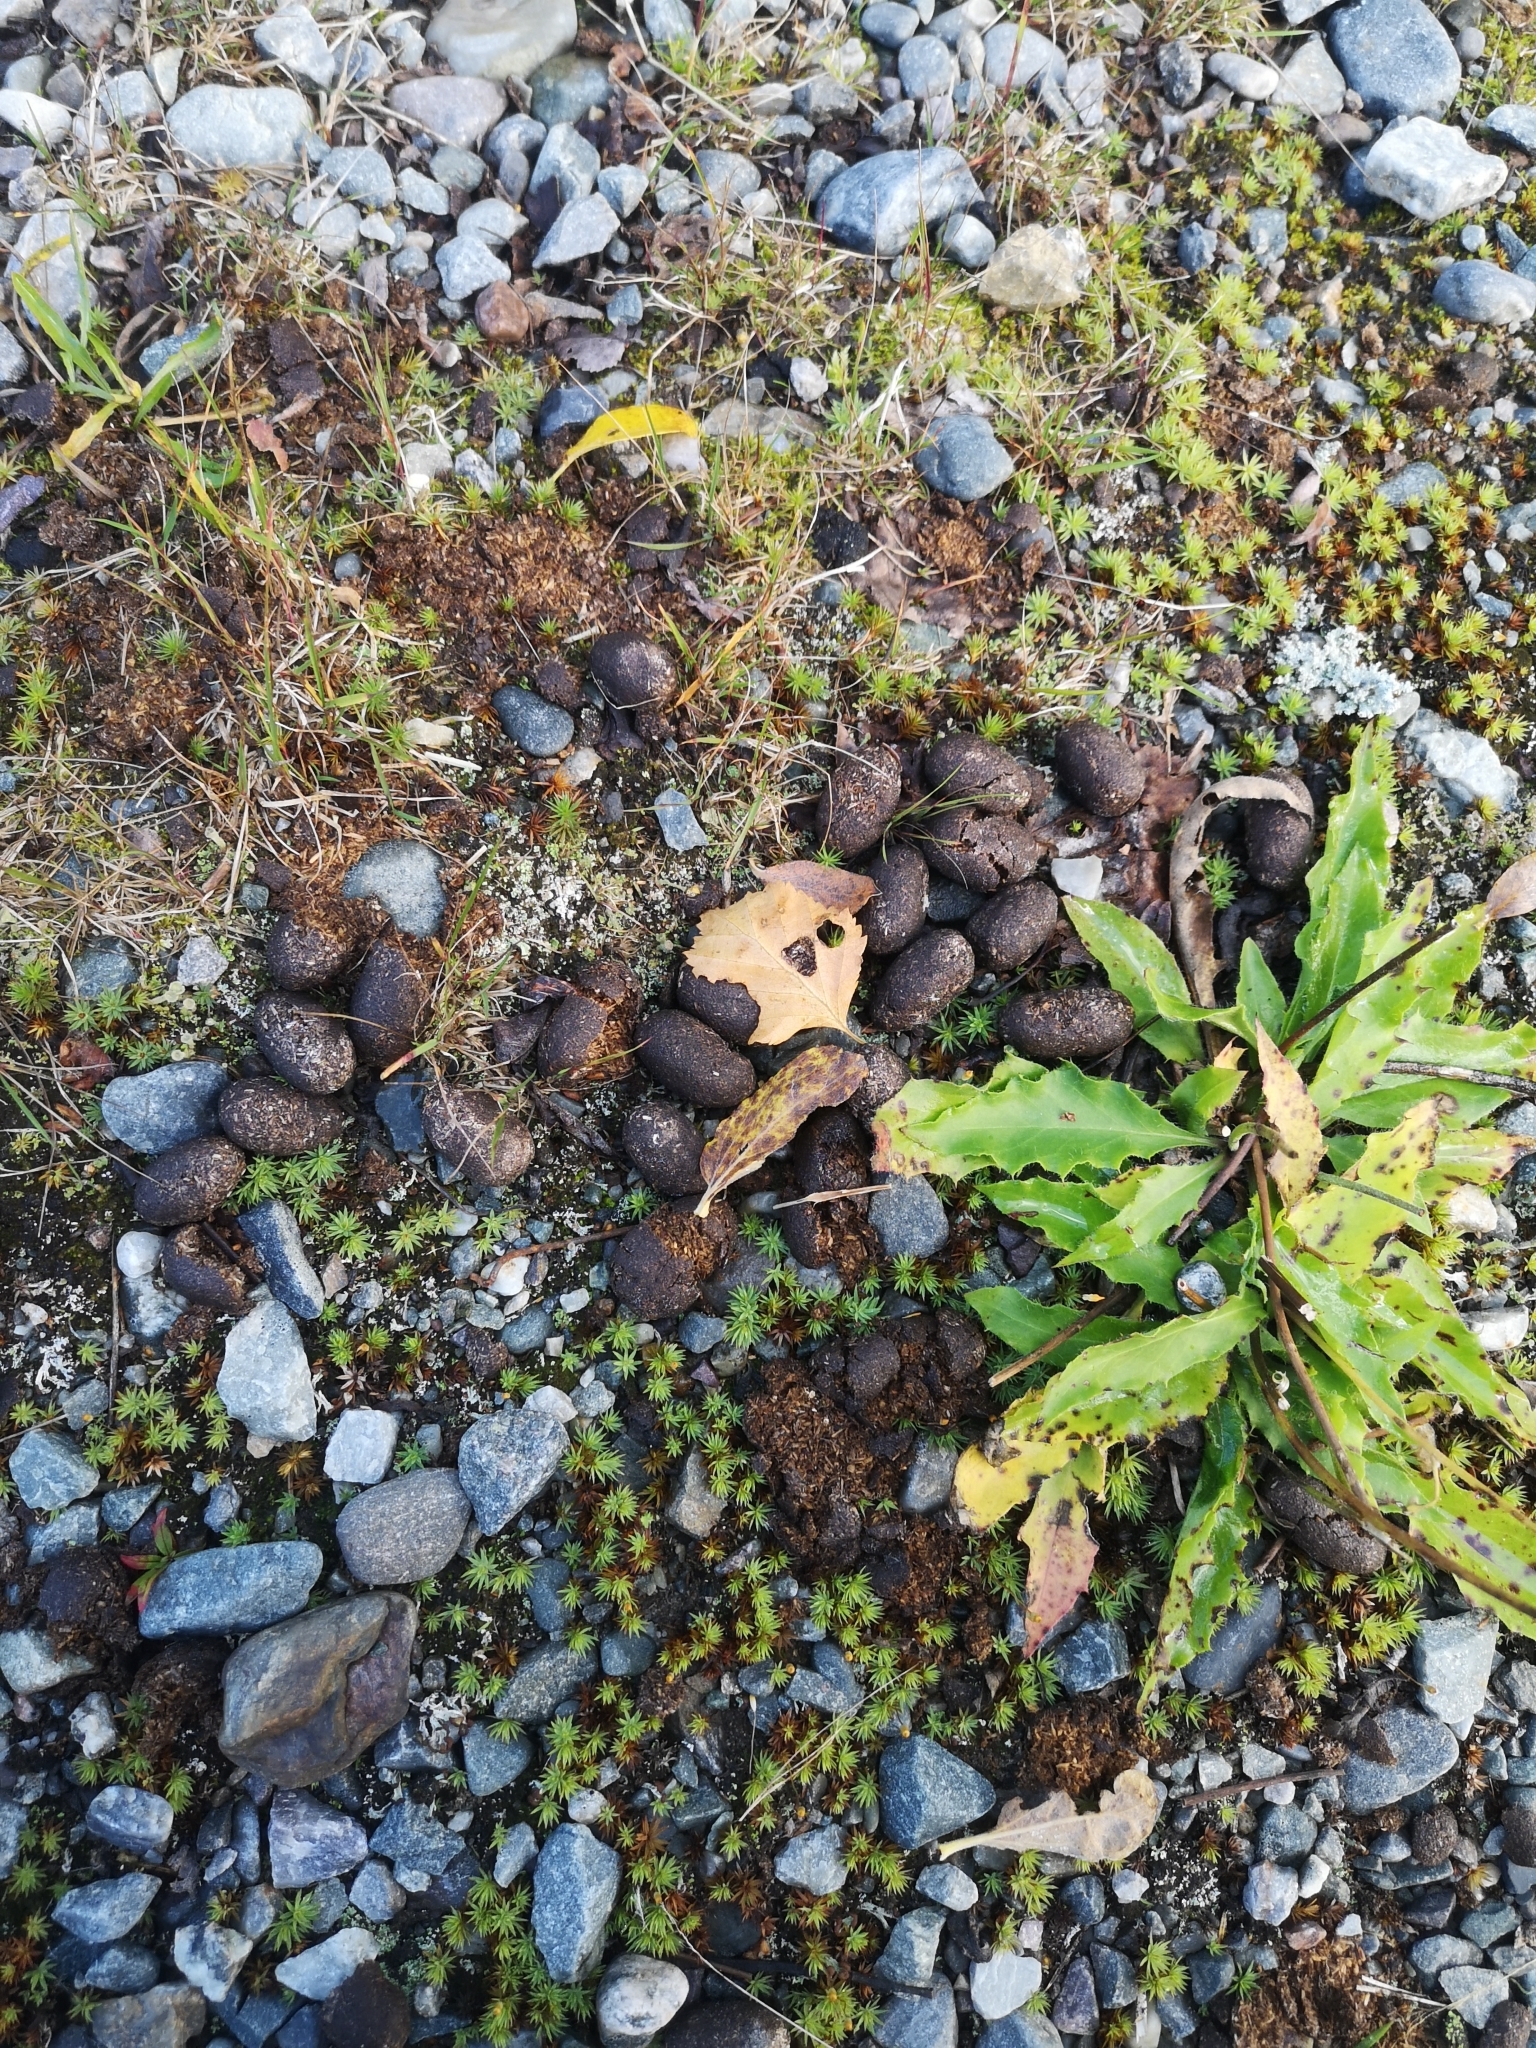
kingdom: Animalia
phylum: Chordata
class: Mammalia
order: Artiodactyla
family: Cervidae
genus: Rangifer
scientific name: Rangifer tarandus
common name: Reindeer
